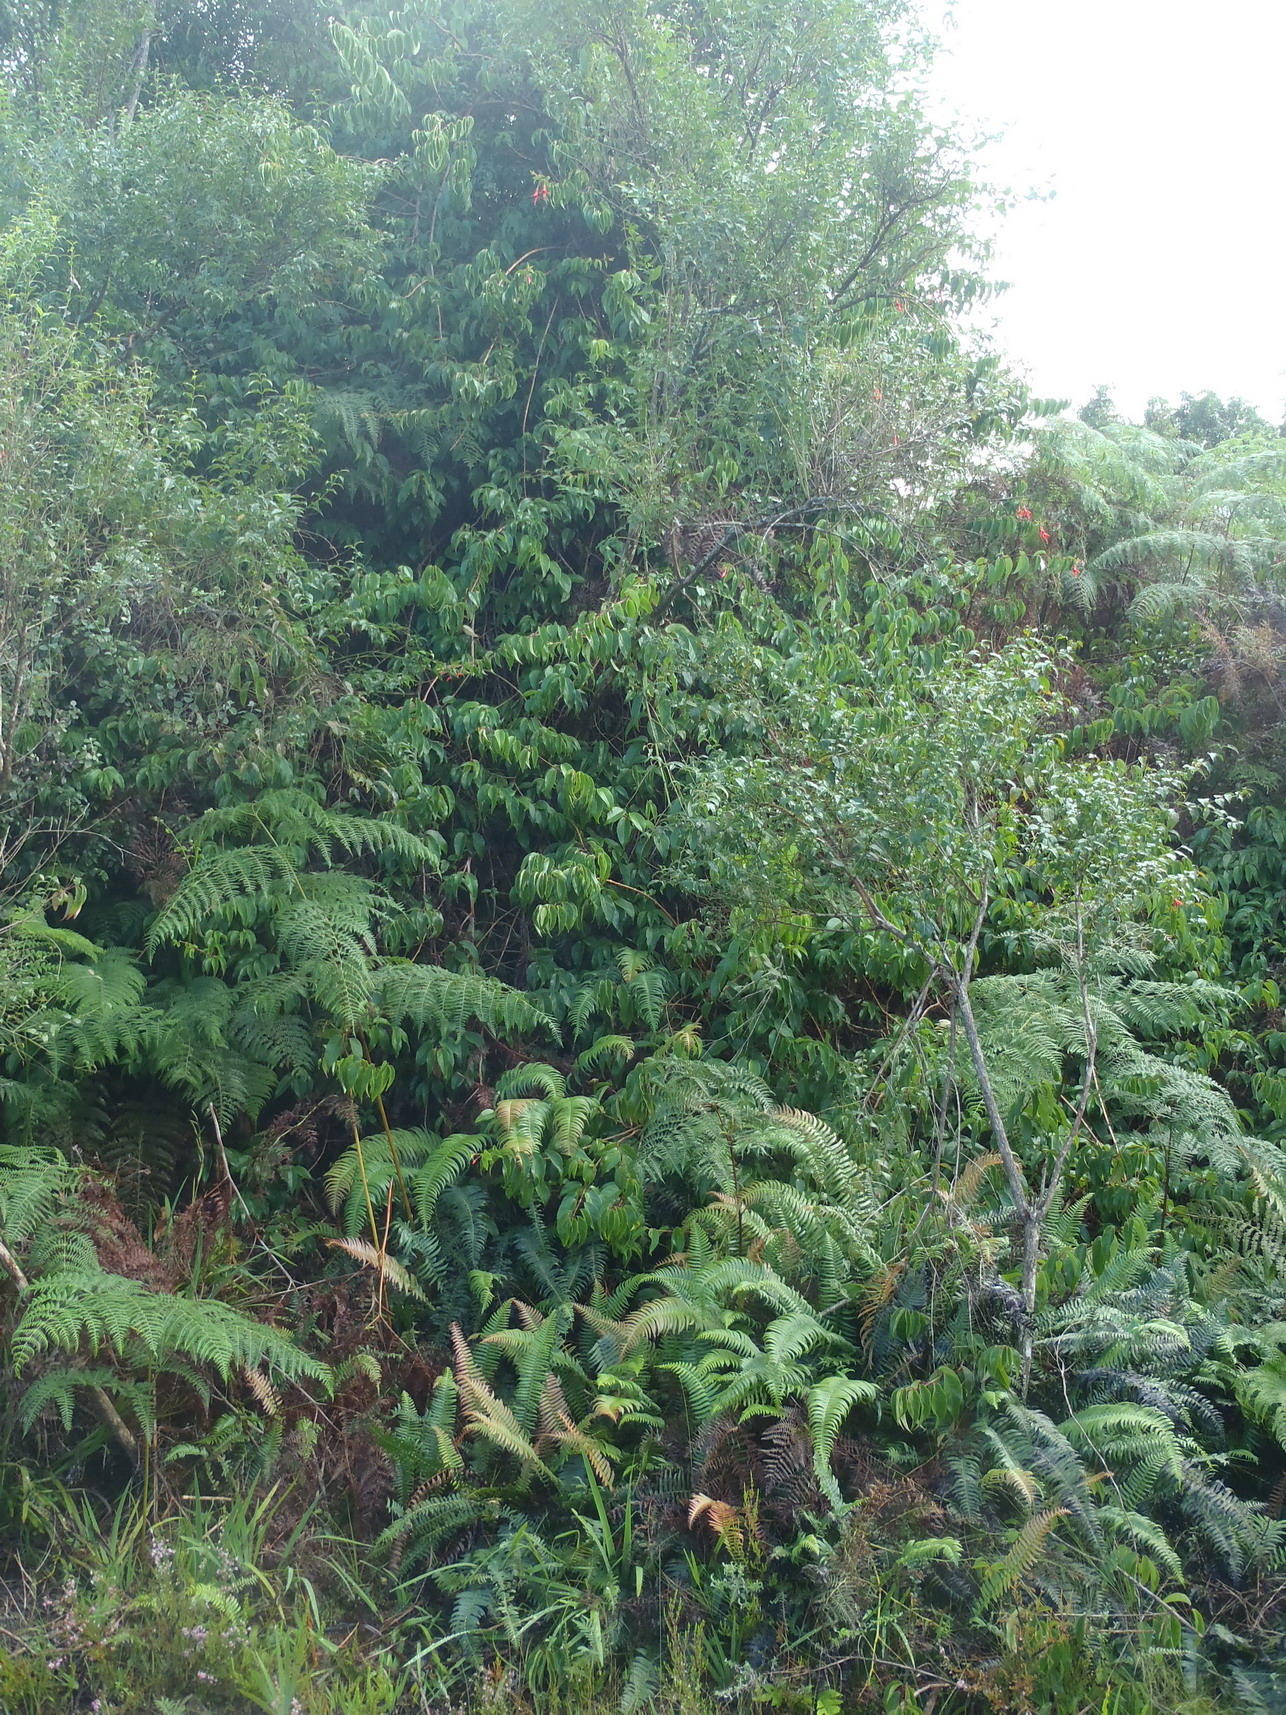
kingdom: Plantae
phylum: Tracheophyta
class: Magnoliopsida
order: Myrtales
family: Onagraceae
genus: Fuchsia
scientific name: Fuchsia regia
